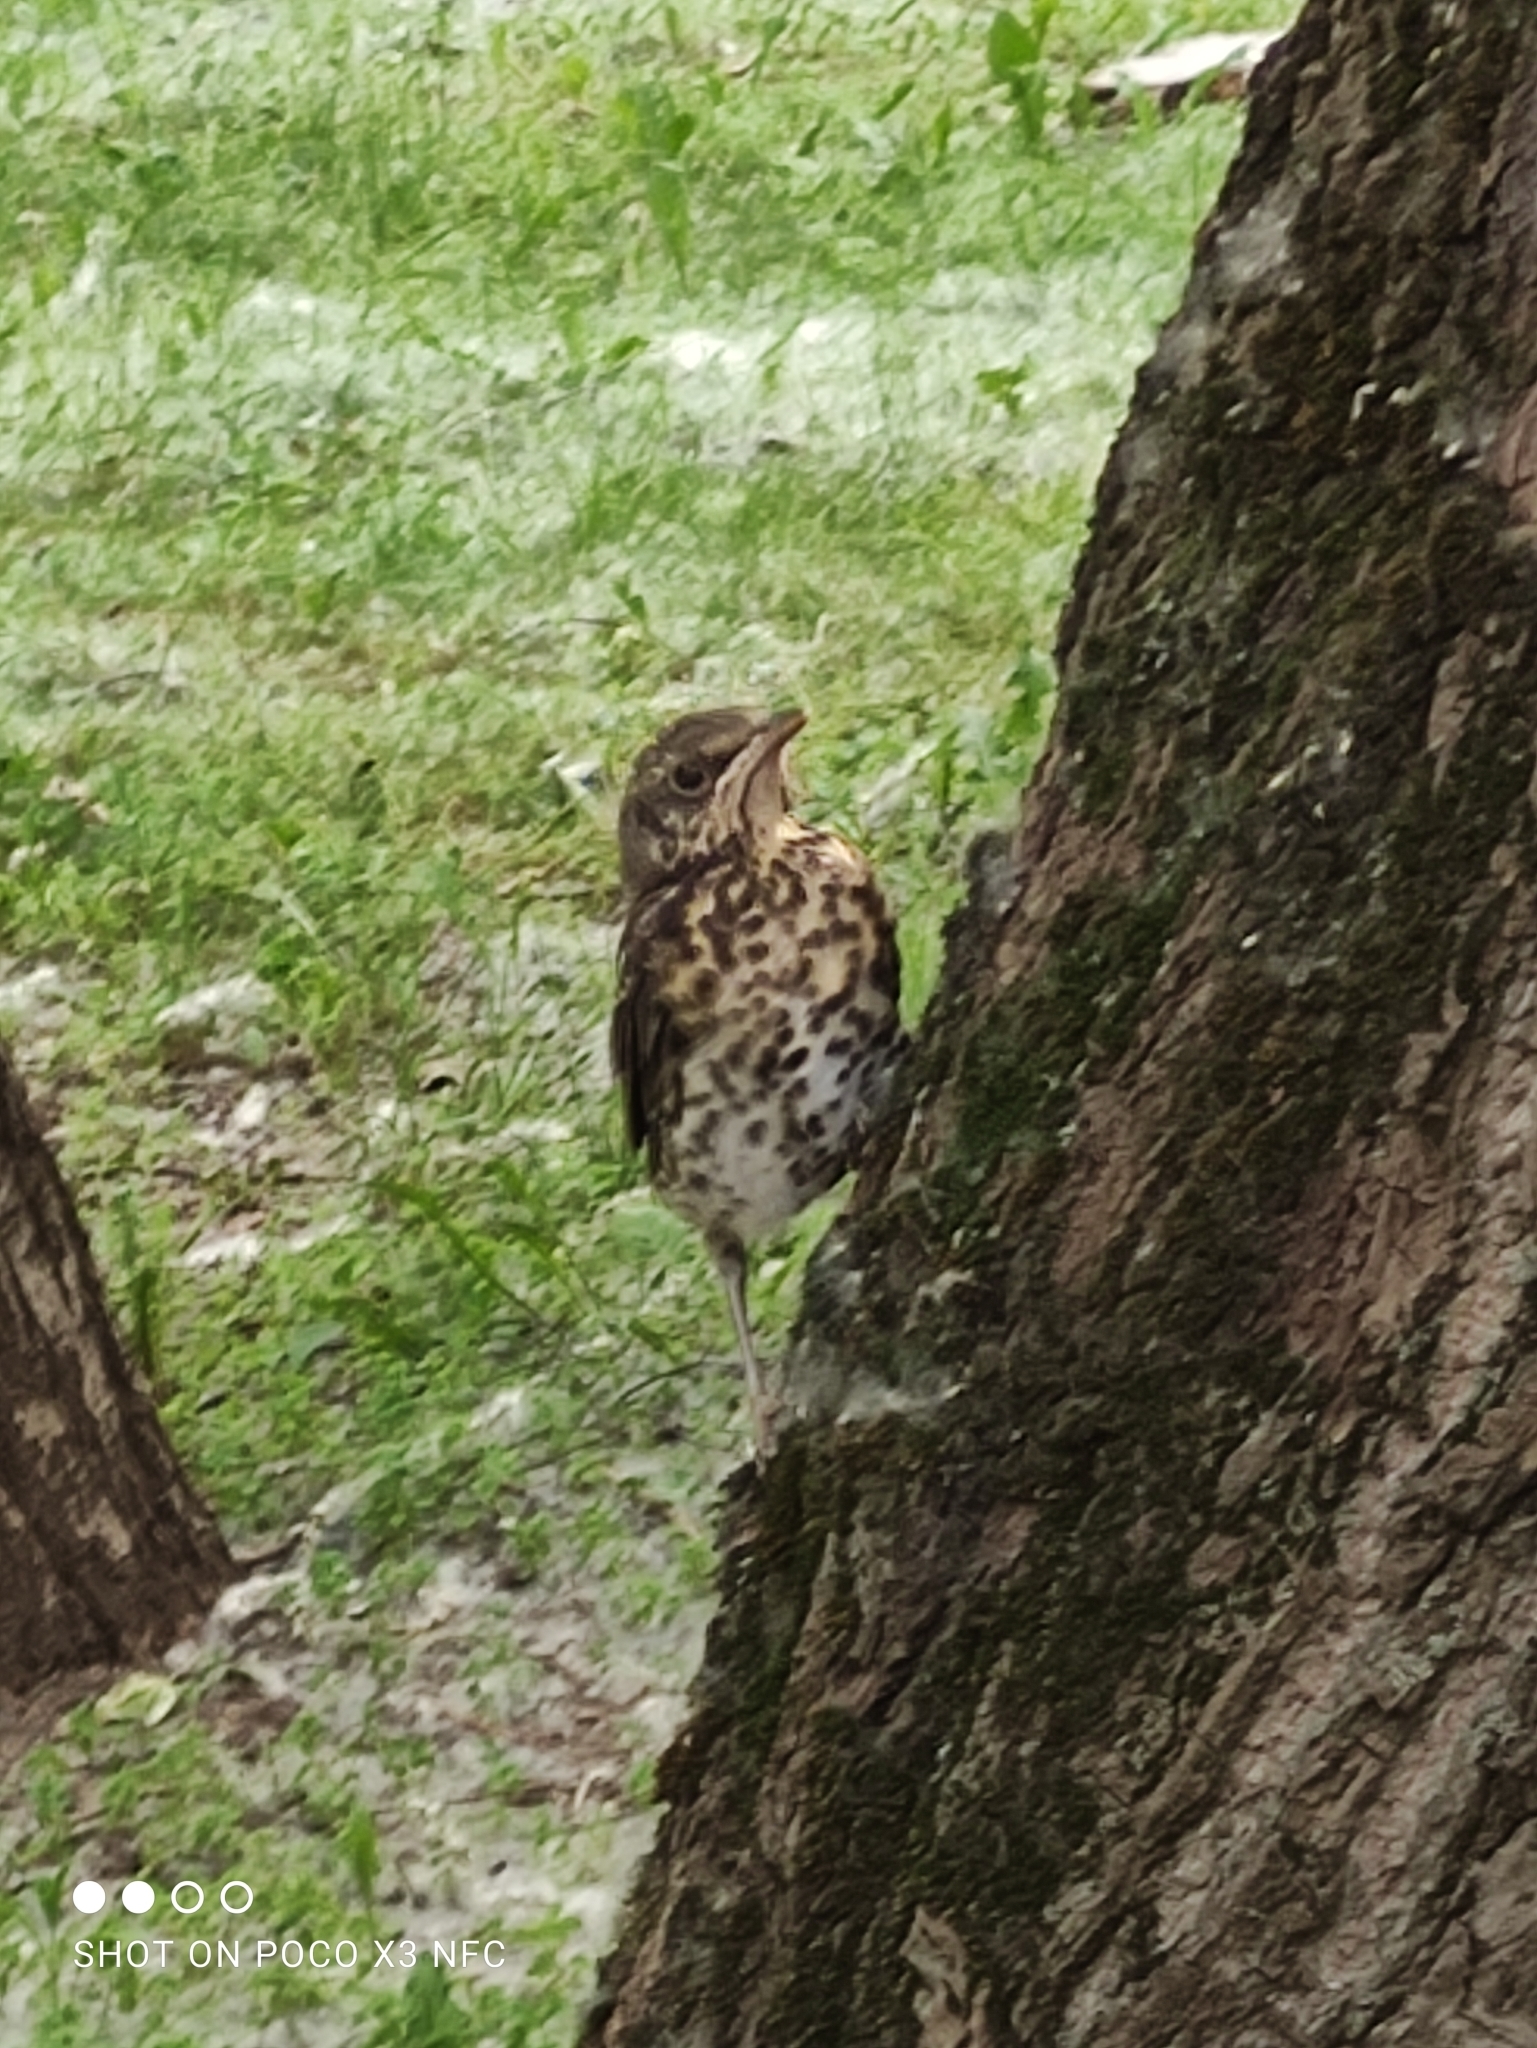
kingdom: Animalia
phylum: Chordata
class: Aves
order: Passeriformes
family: Turdidae
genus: Turdus
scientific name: Turdus pilaris
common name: Fieldfare
